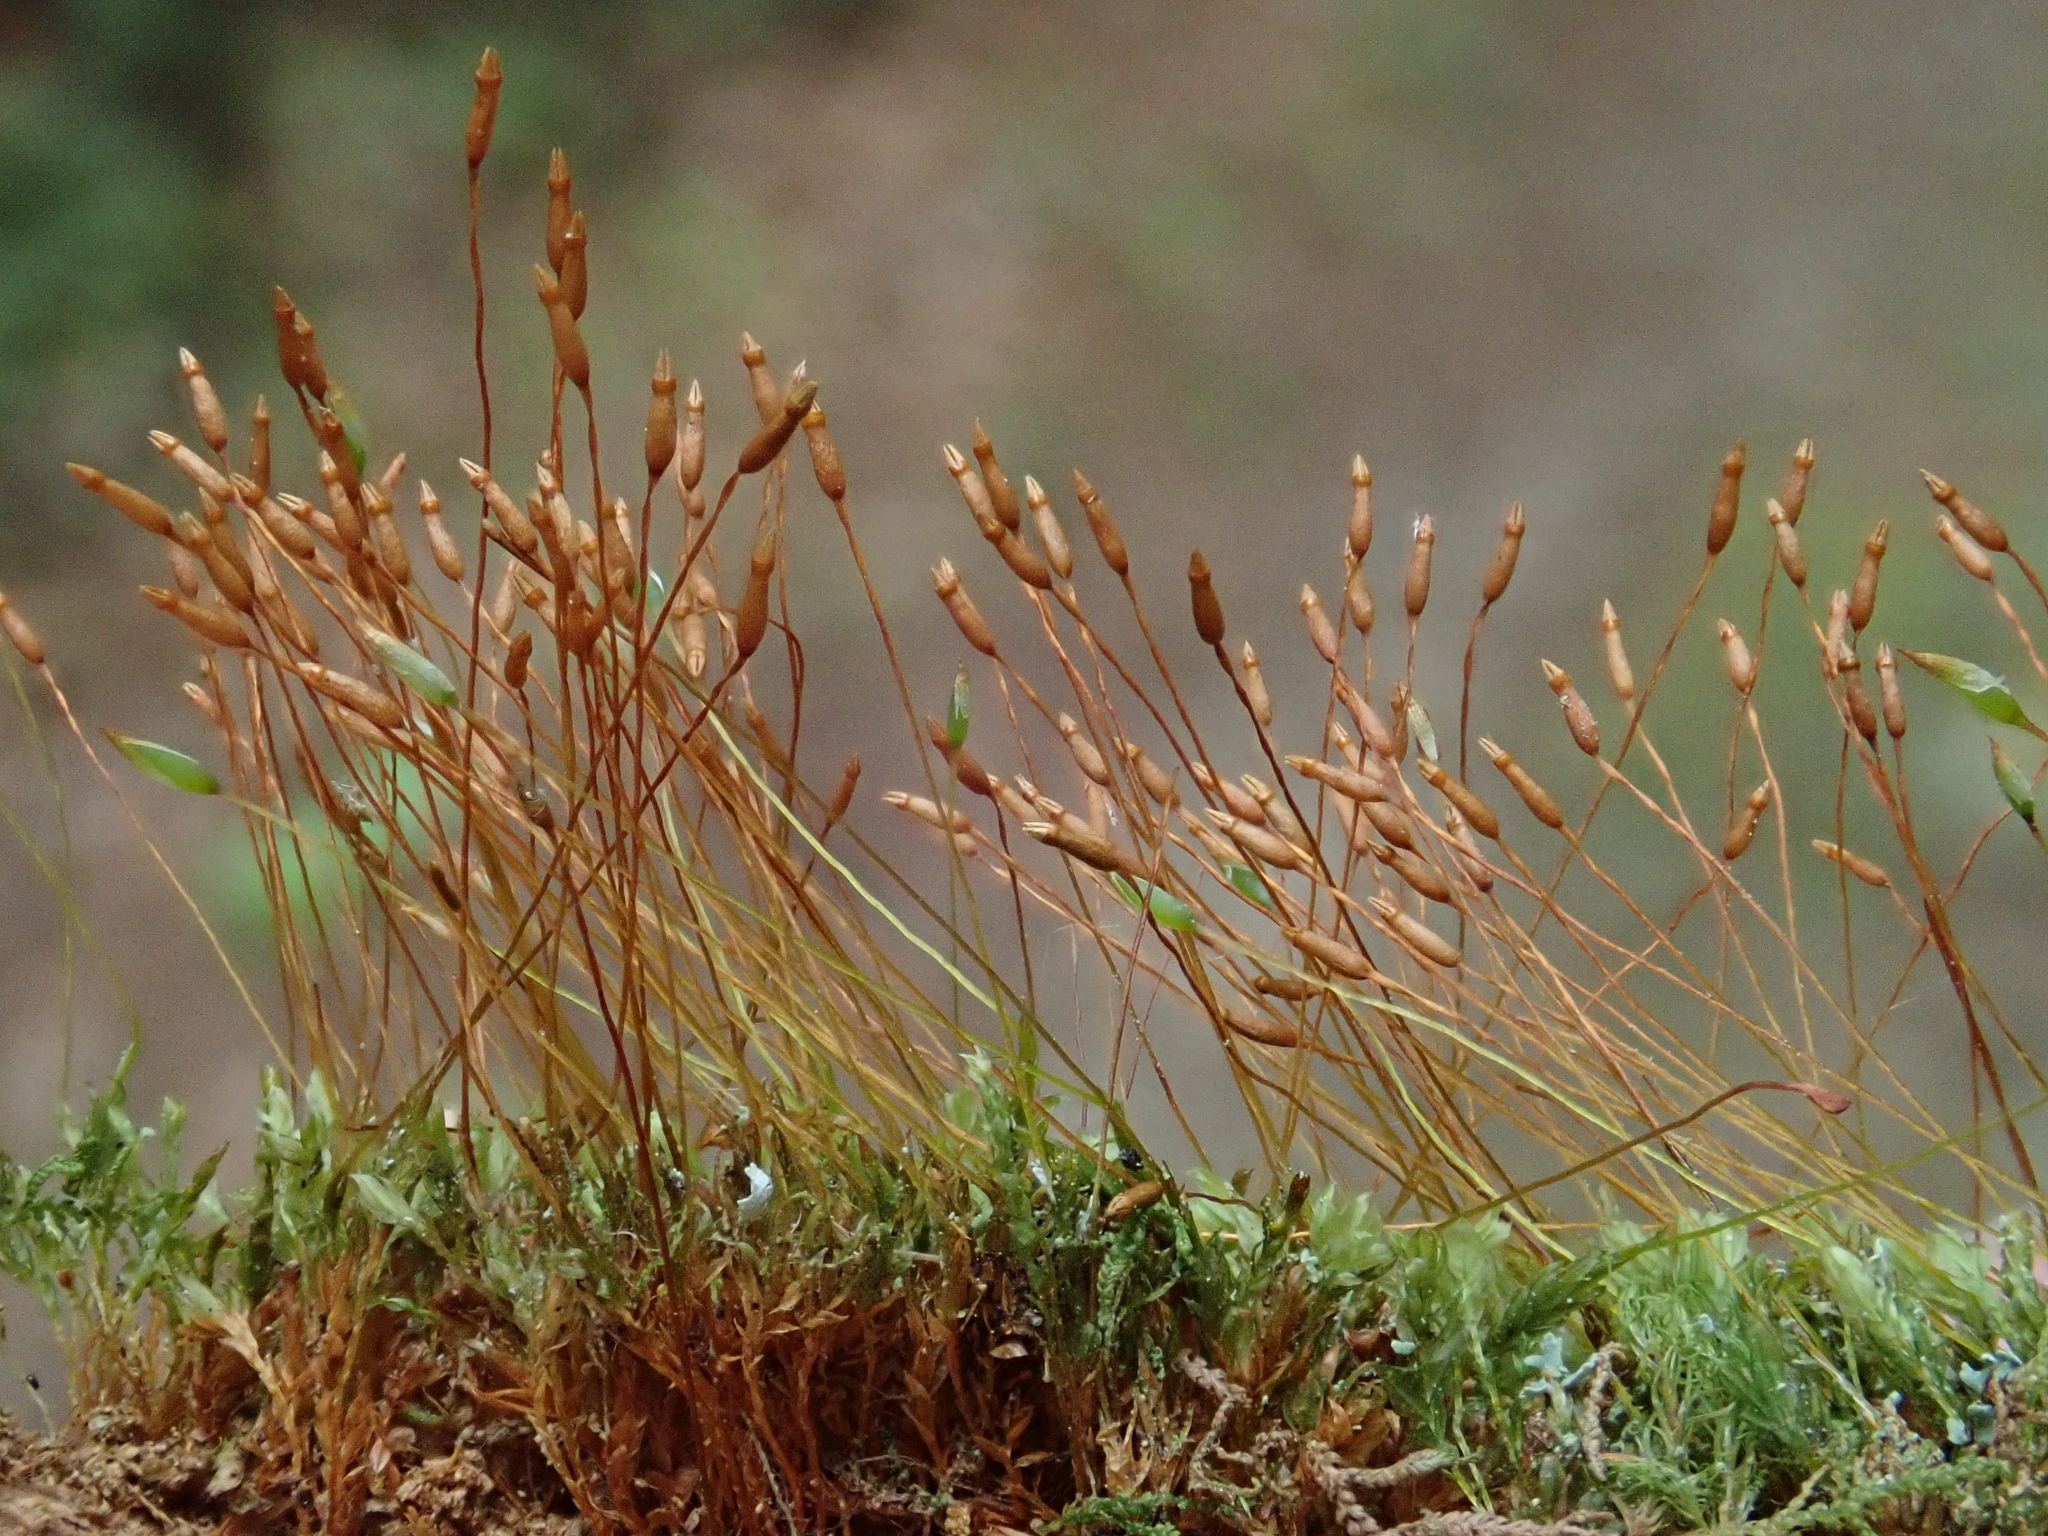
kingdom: Plantae
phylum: Bryophyta
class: Polytrichopsida
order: Tetraphidales
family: Tetraphidaceae
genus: Tetraphis
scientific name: Tetraphis pellucida
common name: Common four-toothed moss
